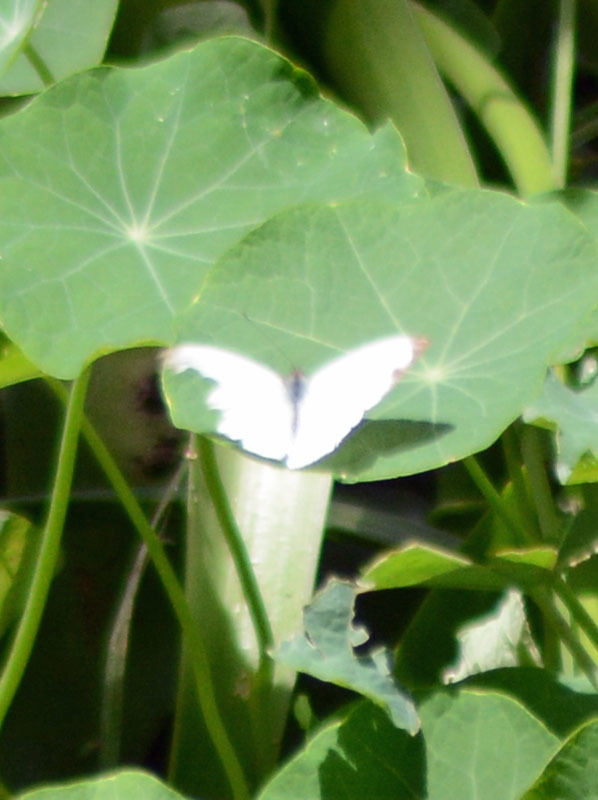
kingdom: Animalia
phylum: Arthropoda
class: Insecta
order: Lepidoptera
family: Pieridae
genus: Leptophobia
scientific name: Leptophobia aripa
